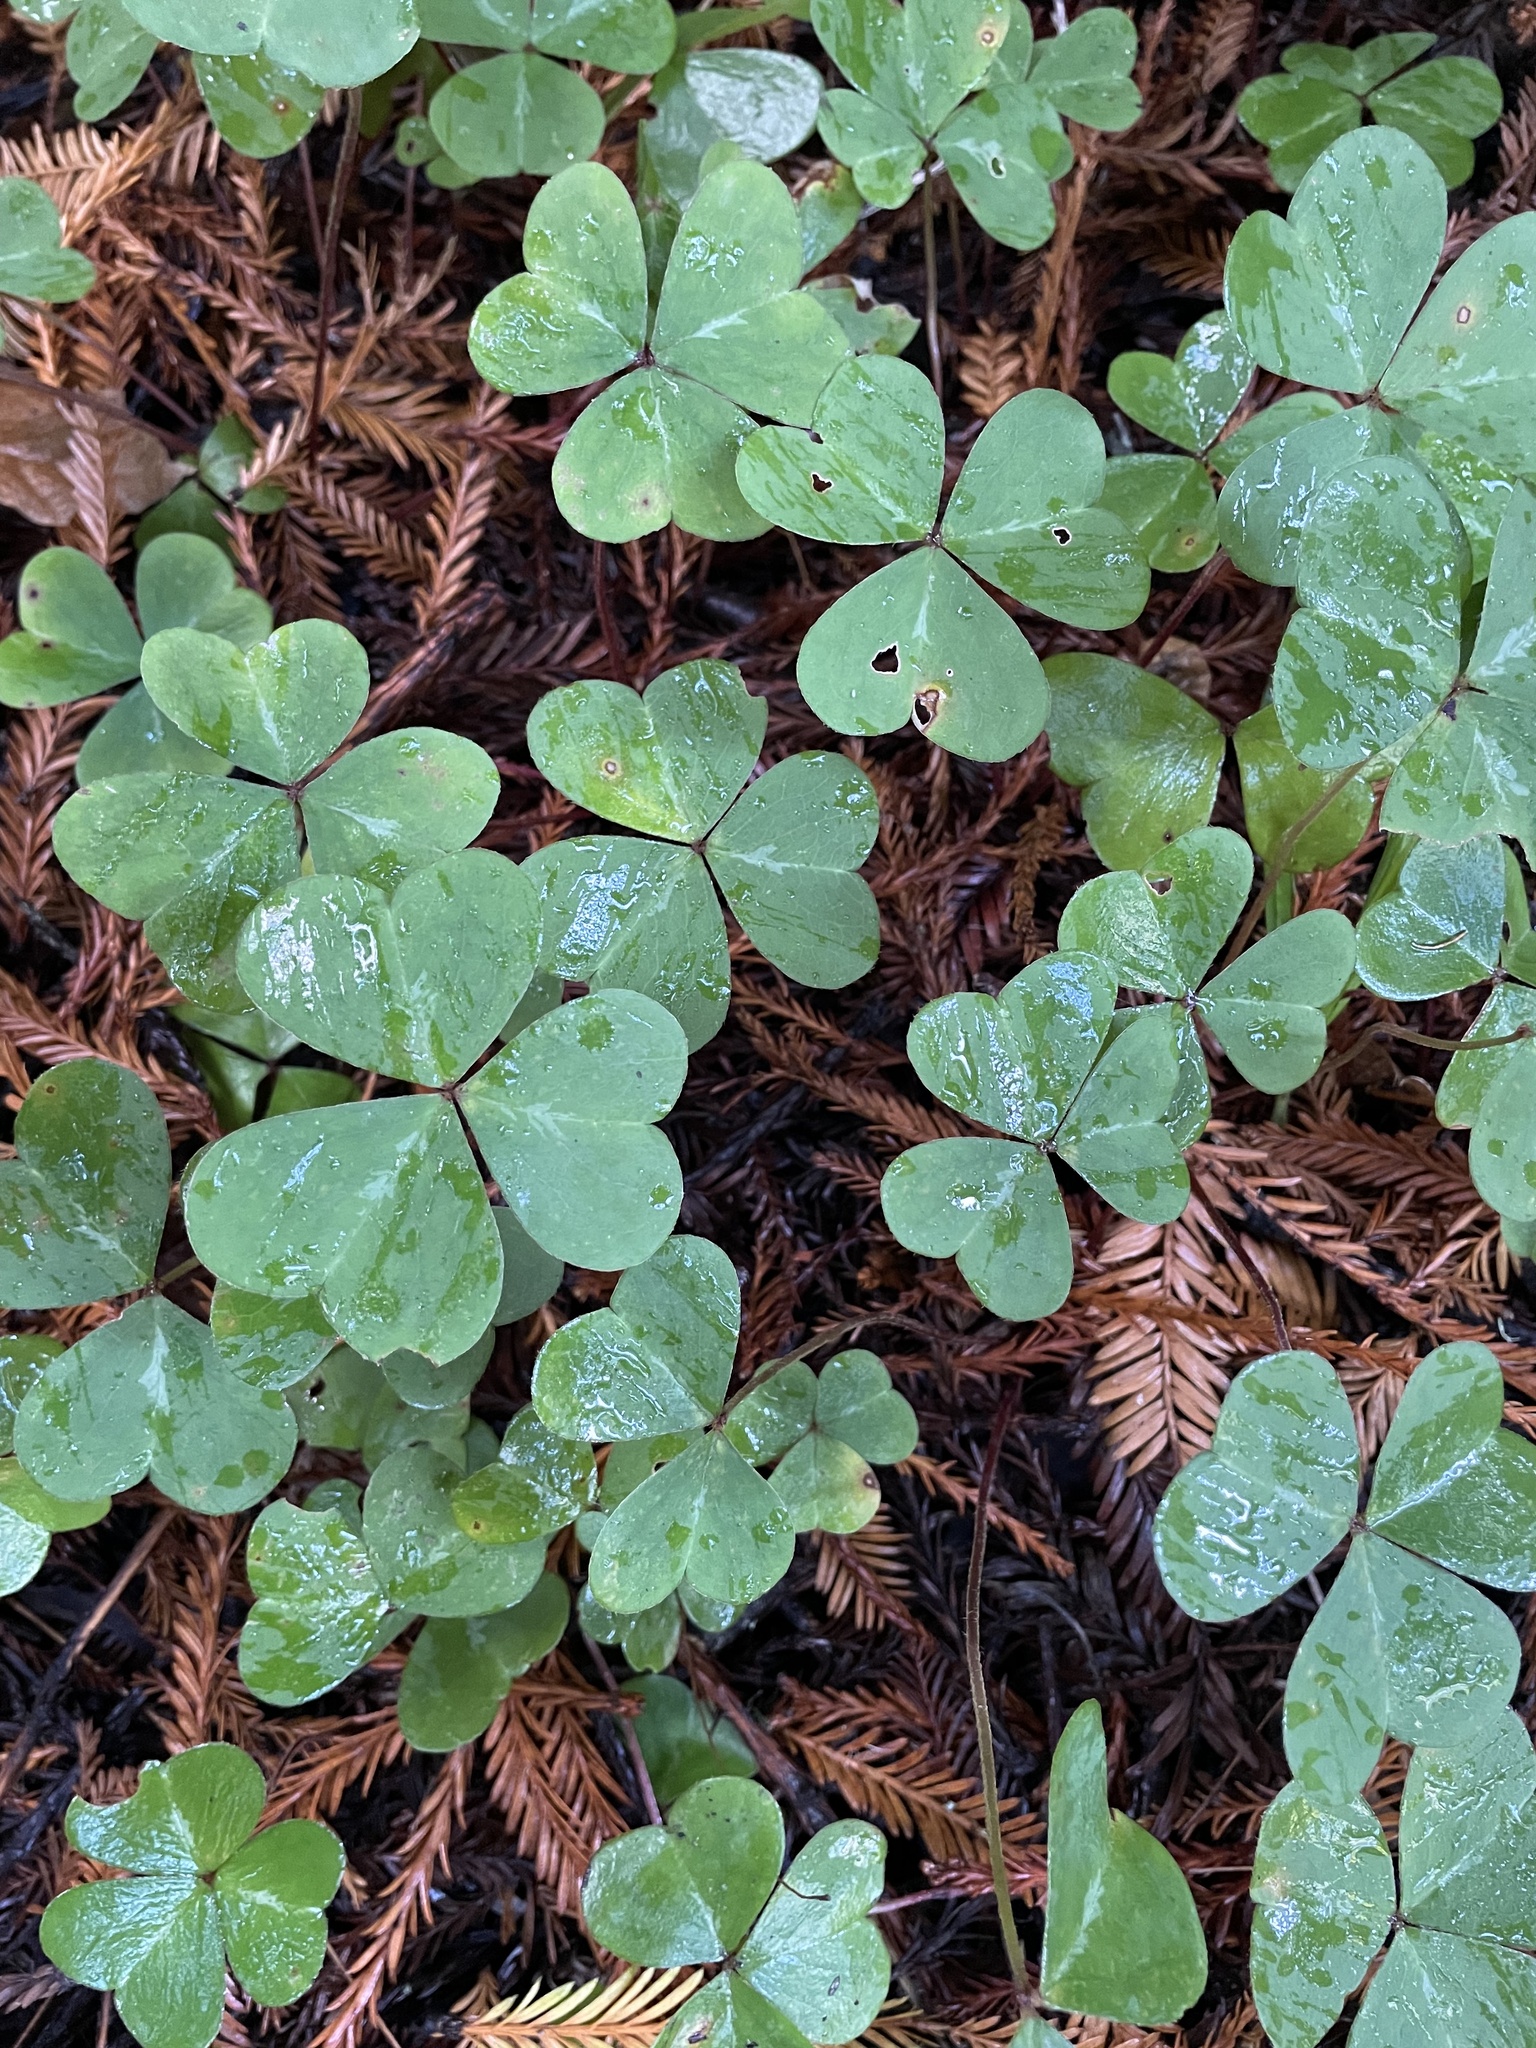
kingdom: Plantae
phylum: Tracheophyta
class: Magnoliopsida
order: Oxalidales
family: Oxalidaceae
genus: Oxalis
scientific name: Oxalis oregana
